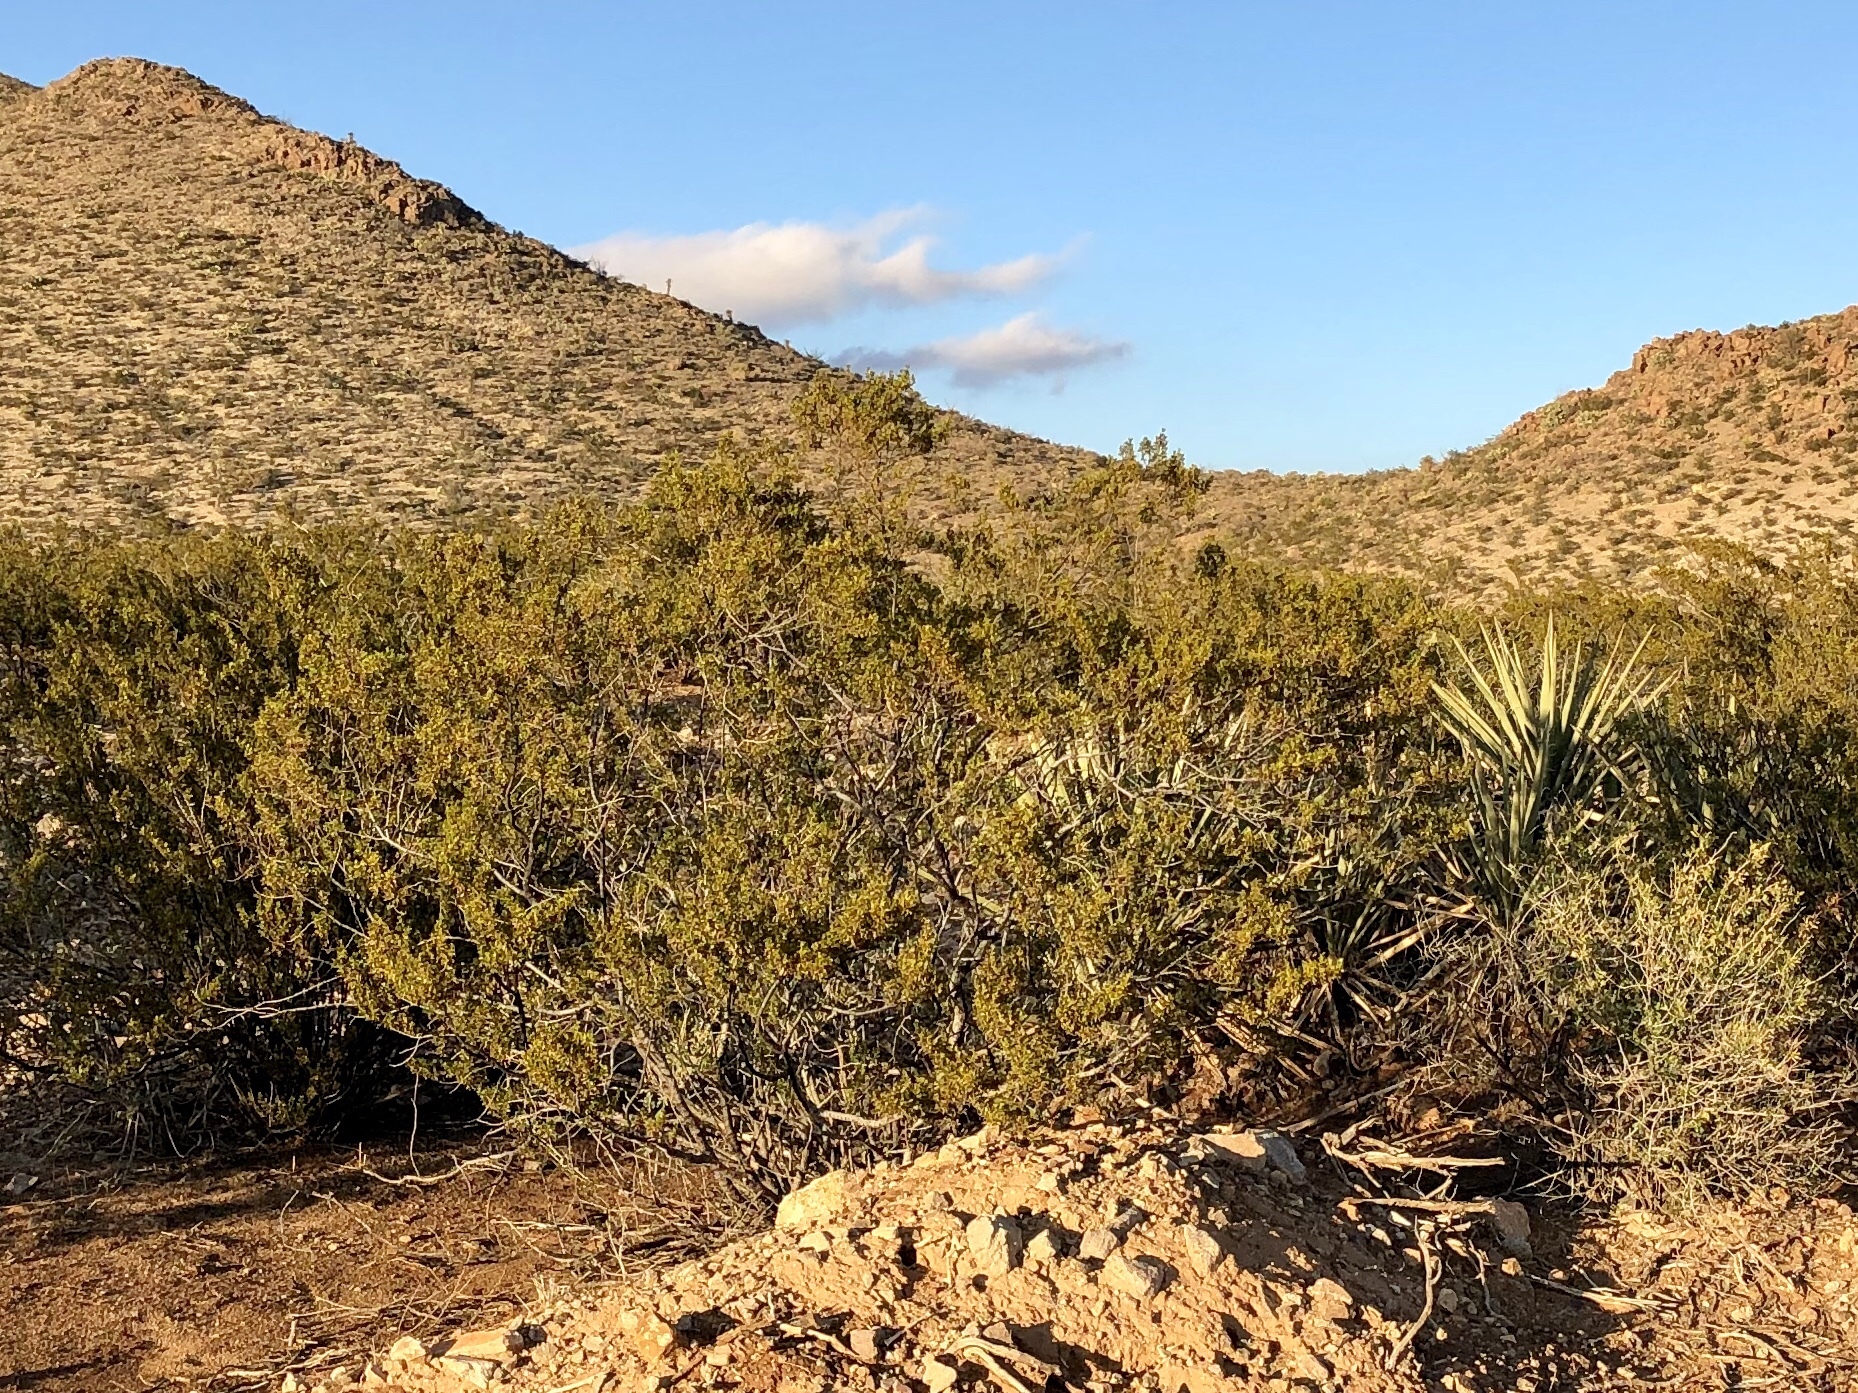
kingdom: Plantae
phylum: Tracheophyta
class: Magnoliopsida
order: Zygophyllales
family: Zygophyllaceae
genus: Larrea
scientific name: Larrea tridentata
